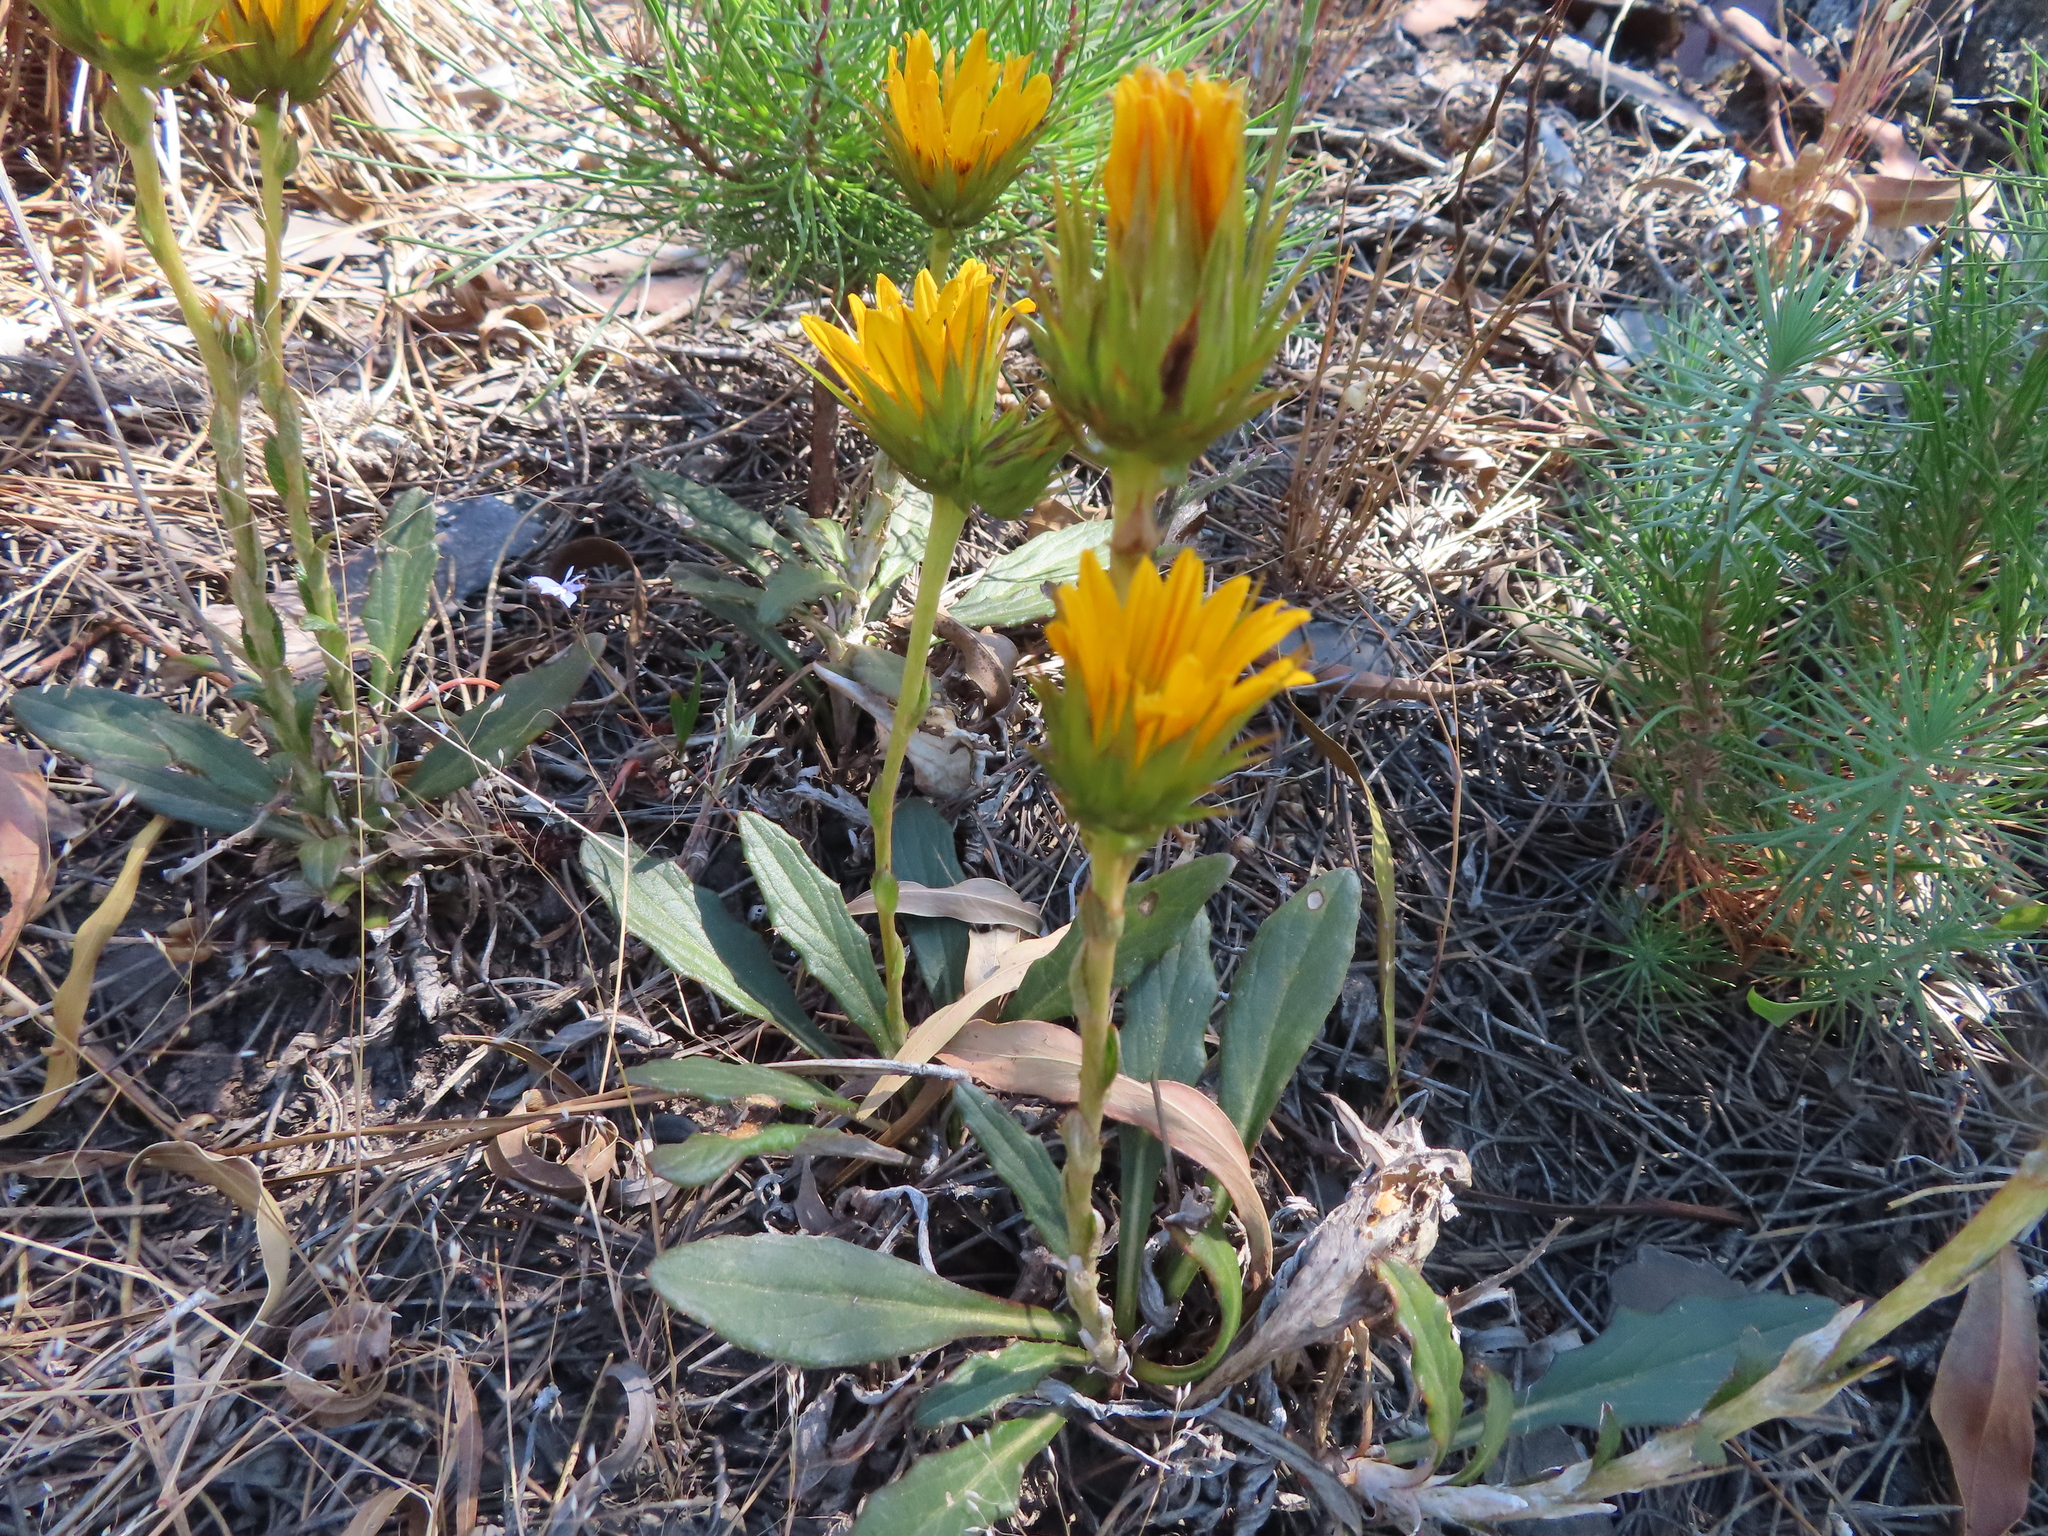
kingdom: Plantae
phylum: Tracheophyta
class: Magnoliopsida
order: Asterales
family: Asteraceae
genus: Berkheya
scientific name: Berkheya herbacea
